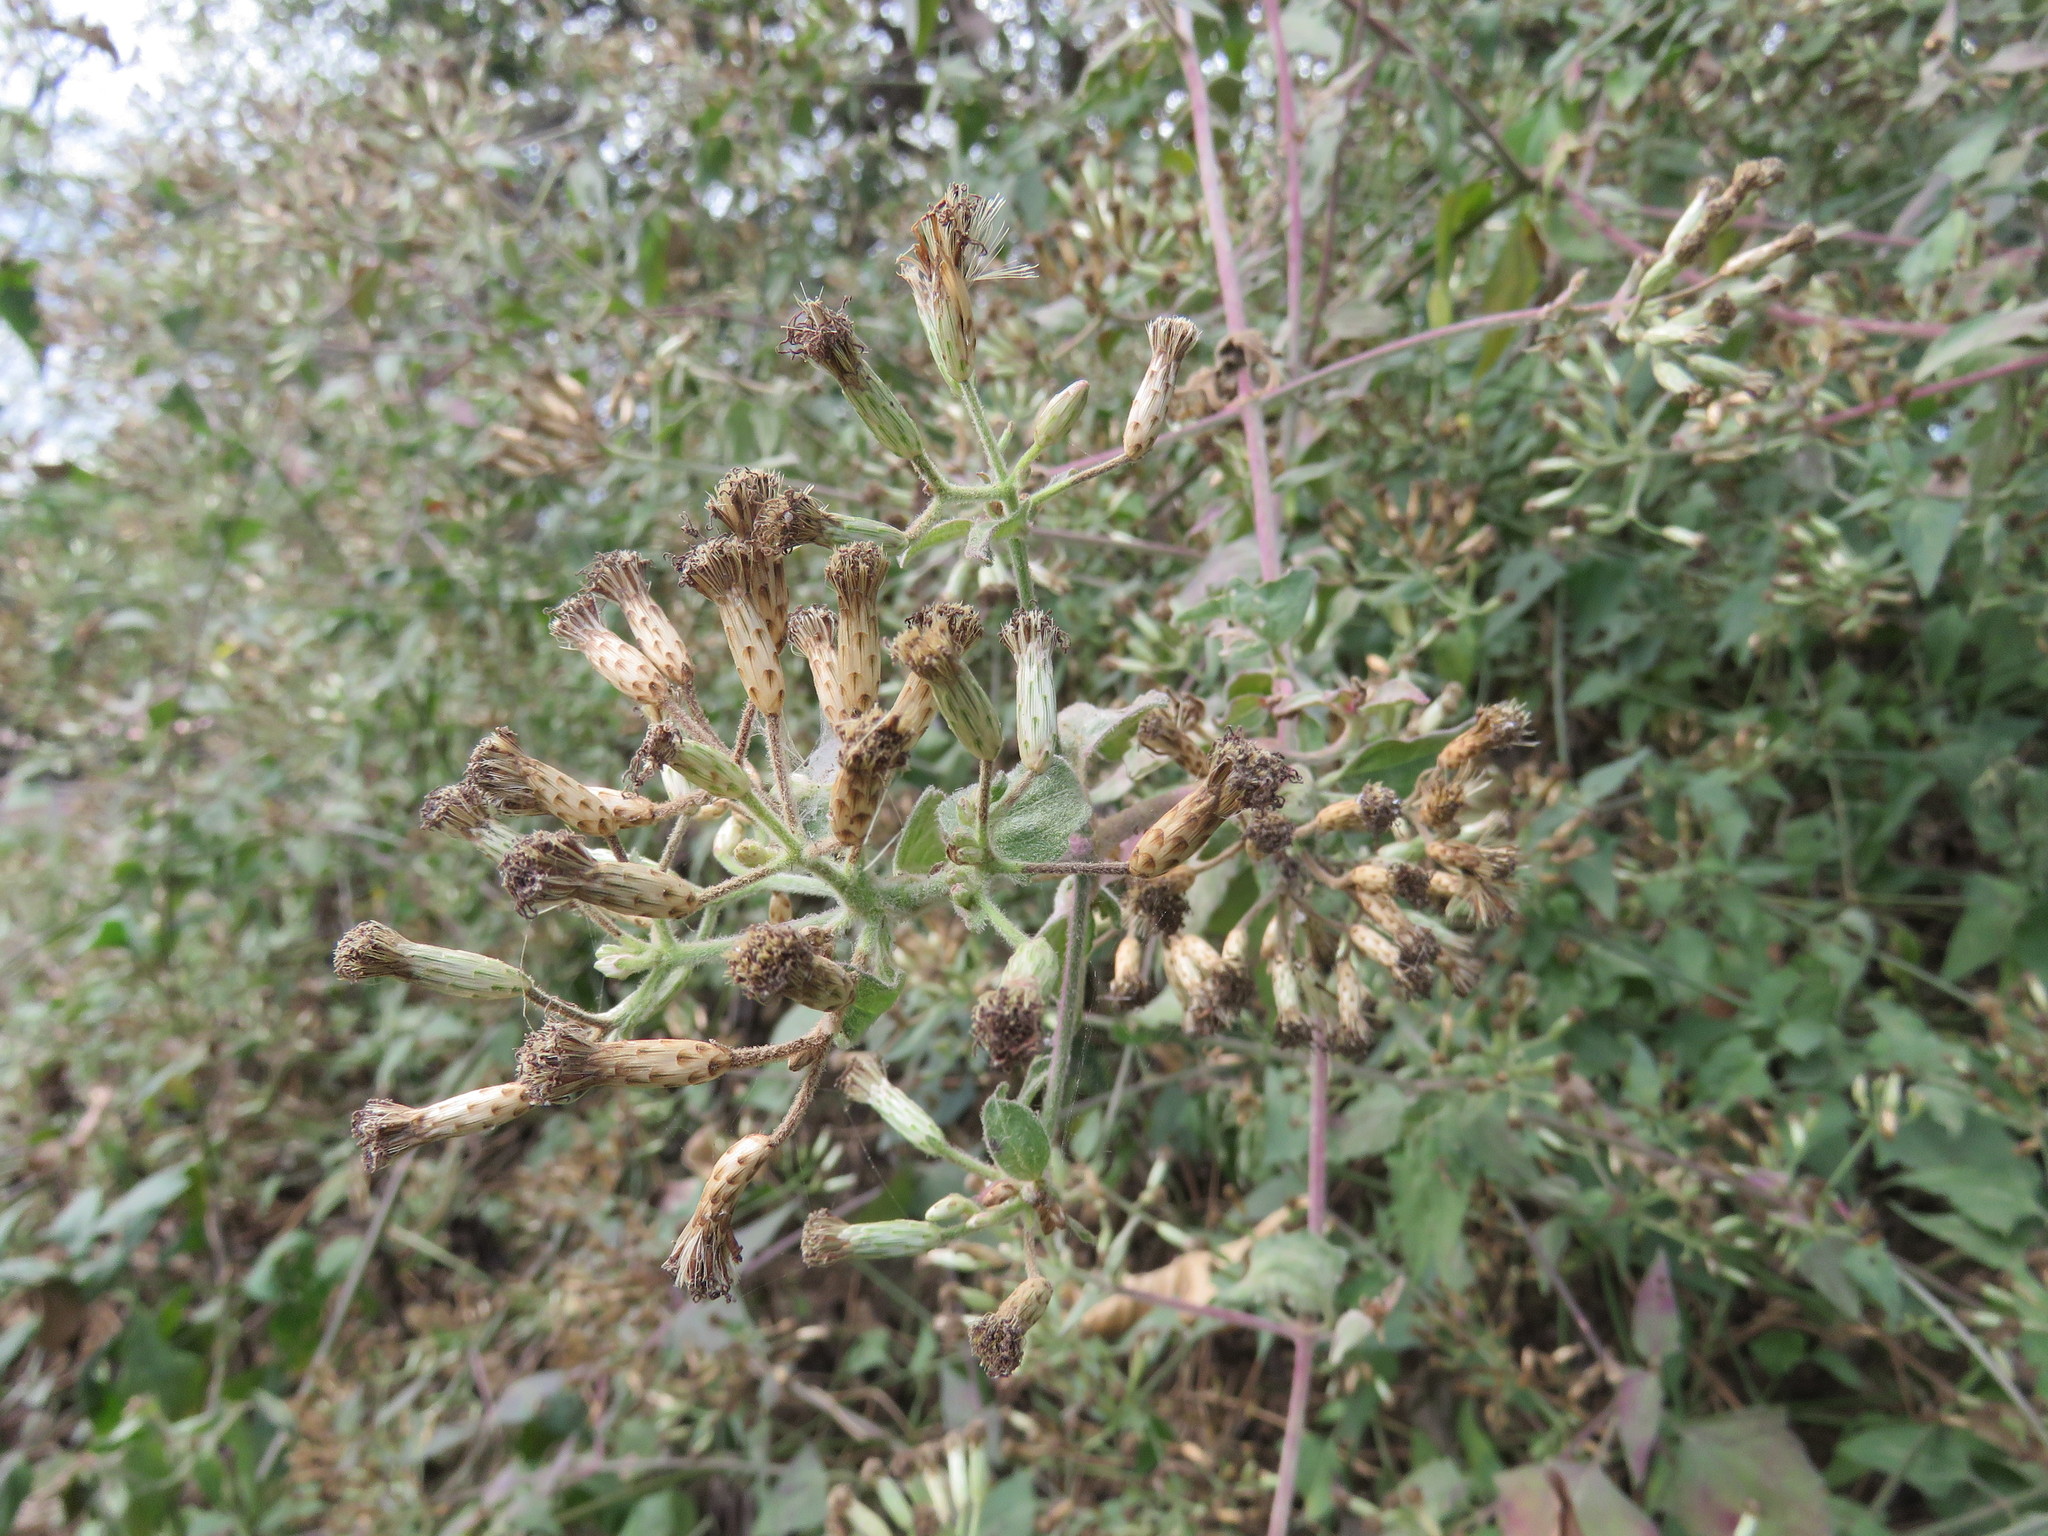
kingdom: Plantae
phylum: Tracheophyta
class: Magnoliopsida
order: Asterales
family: Asteraceae
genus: Chromolaena
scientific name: Chromolaena odorata
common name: Siamweed
